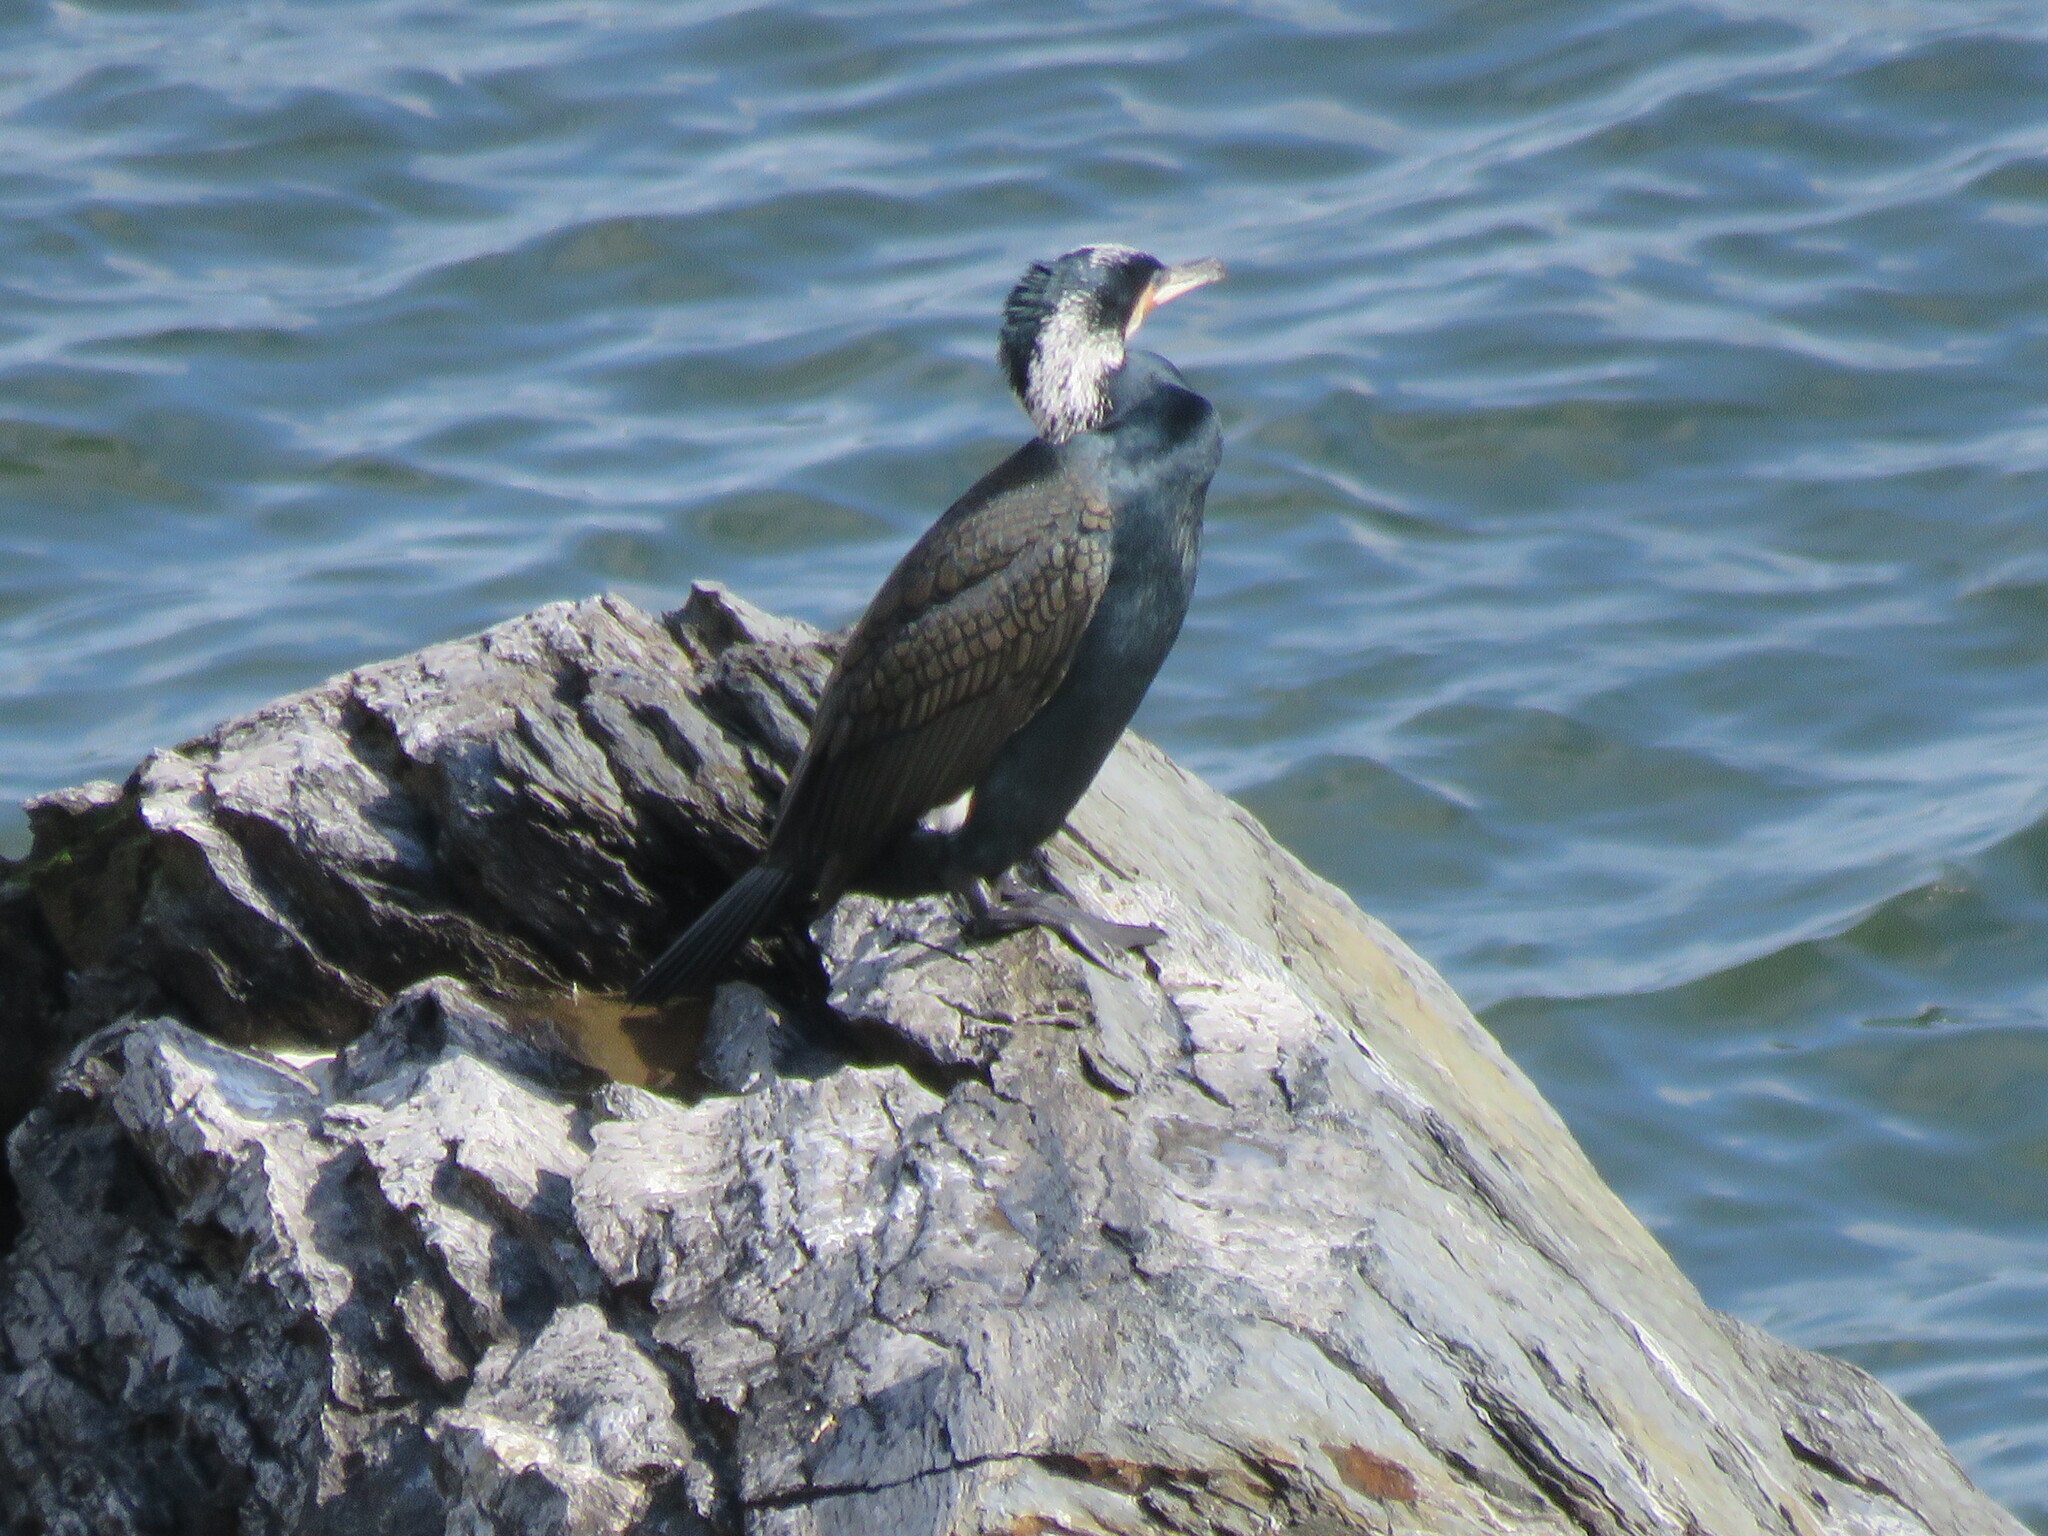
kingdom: Animalia
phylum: Chordata
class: Aves
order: Suliformes
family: Phalacrocoracidae
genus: Phalacrocorax
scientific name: Phalacrocorax carbo
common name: Great cormorant
